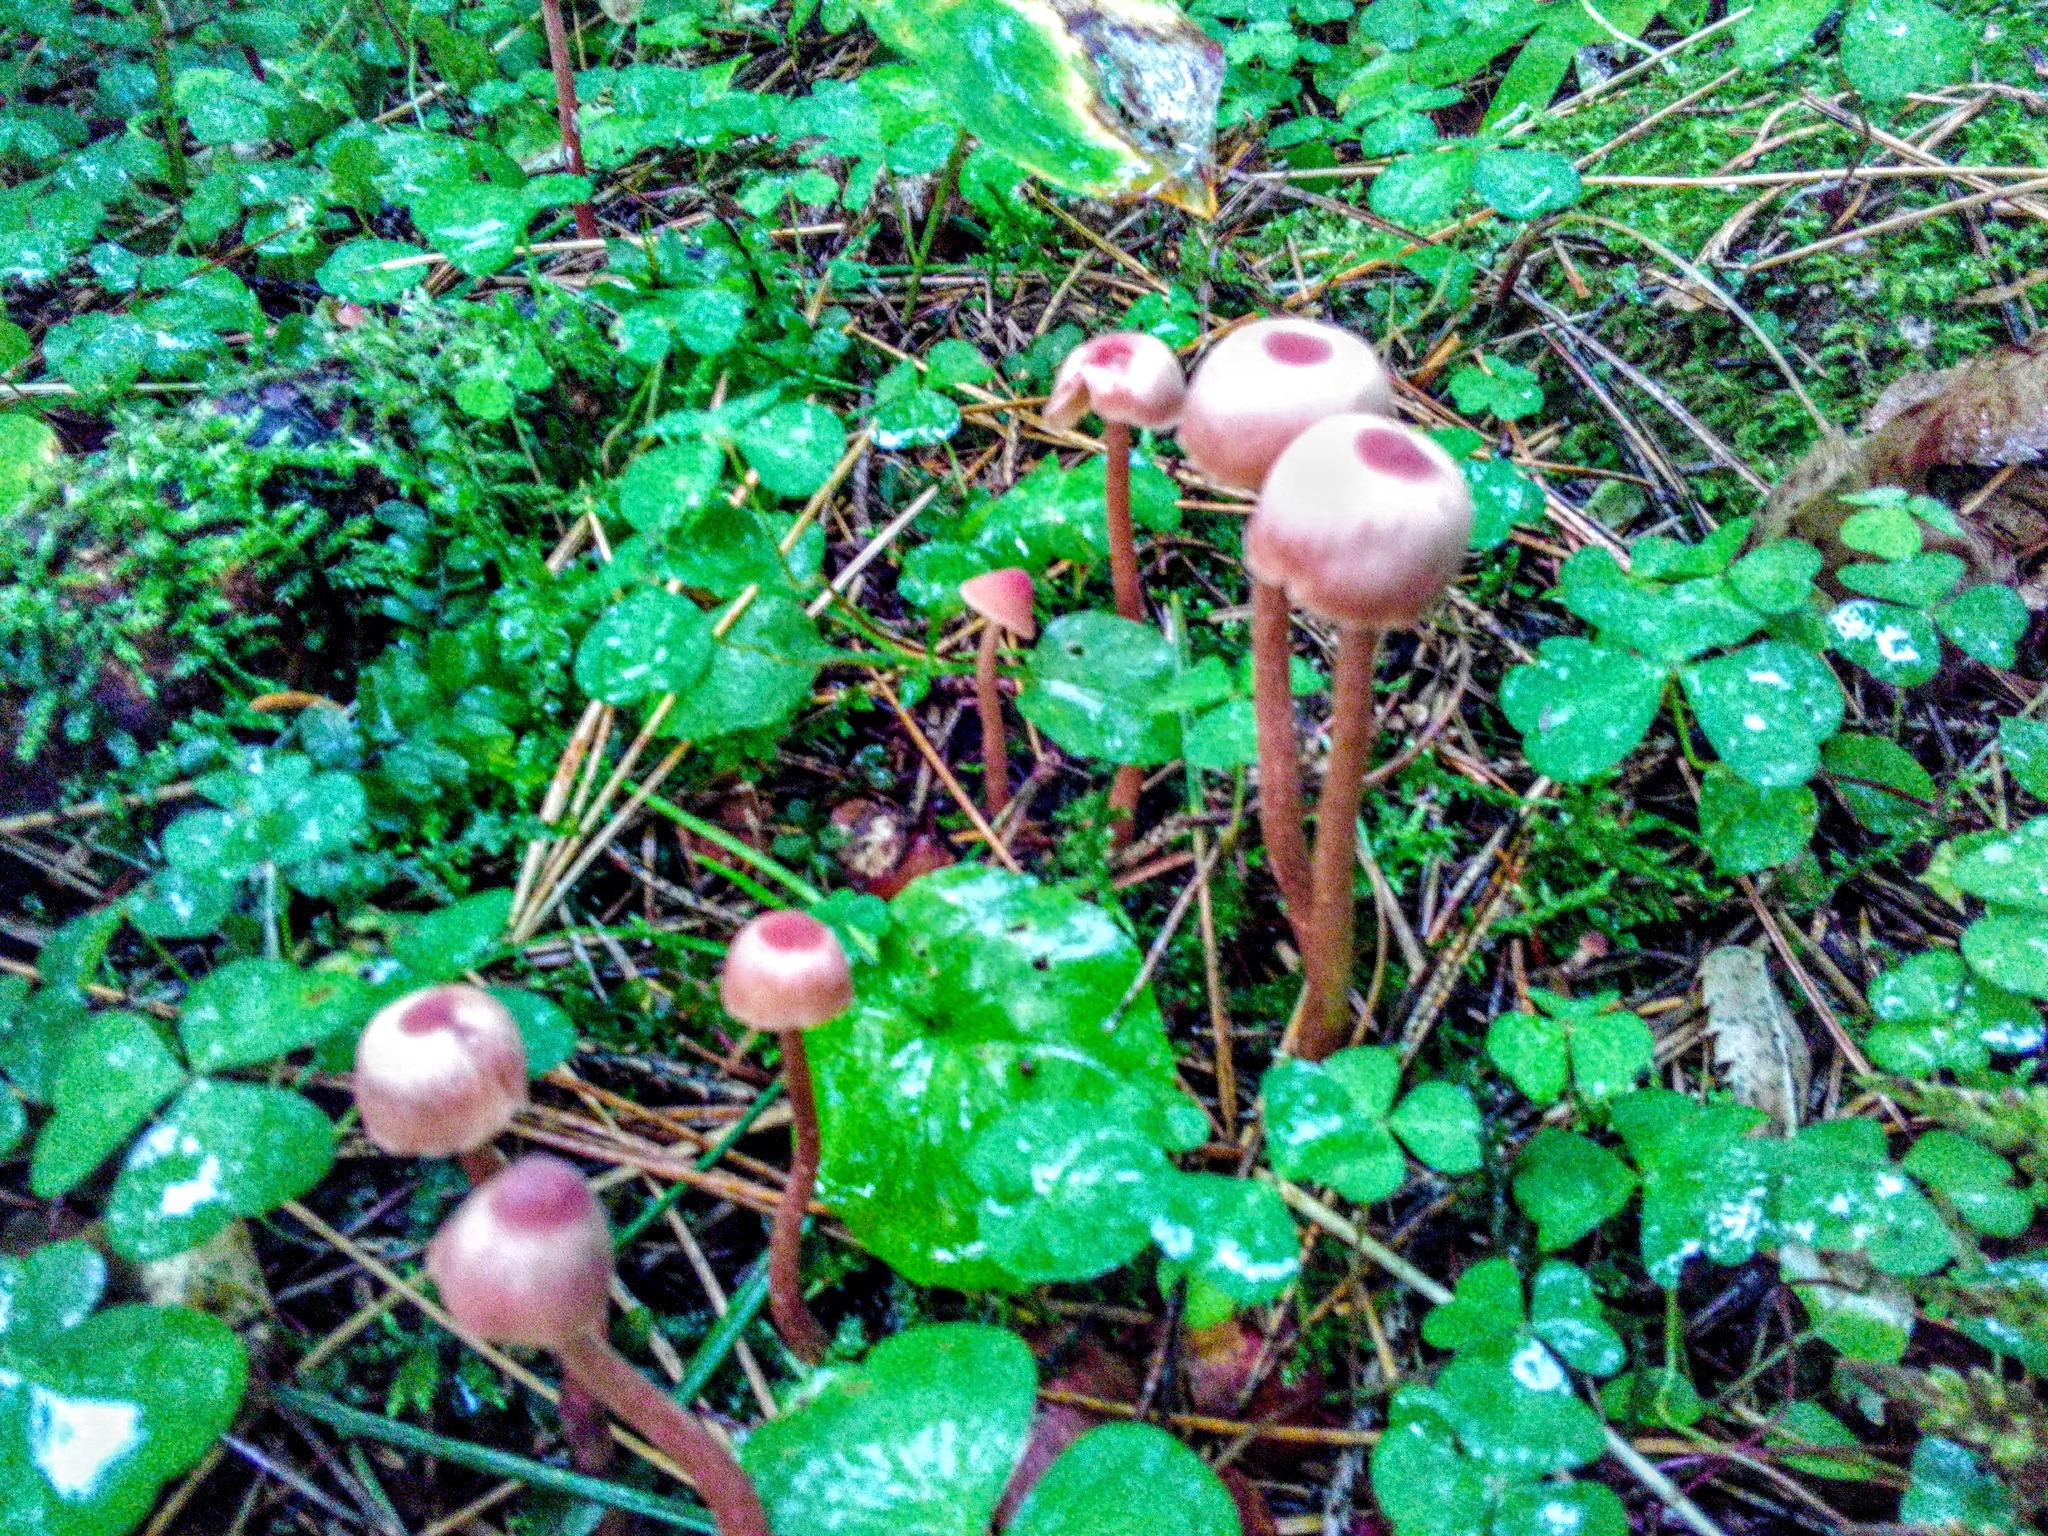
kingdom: Fungi
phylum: Basidiomycota
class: Agaricomycetes
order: Agaricales
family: Hydnangiaceae
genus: Laccaria
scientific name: Laccaria proxima
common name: Scurfy deceiver
